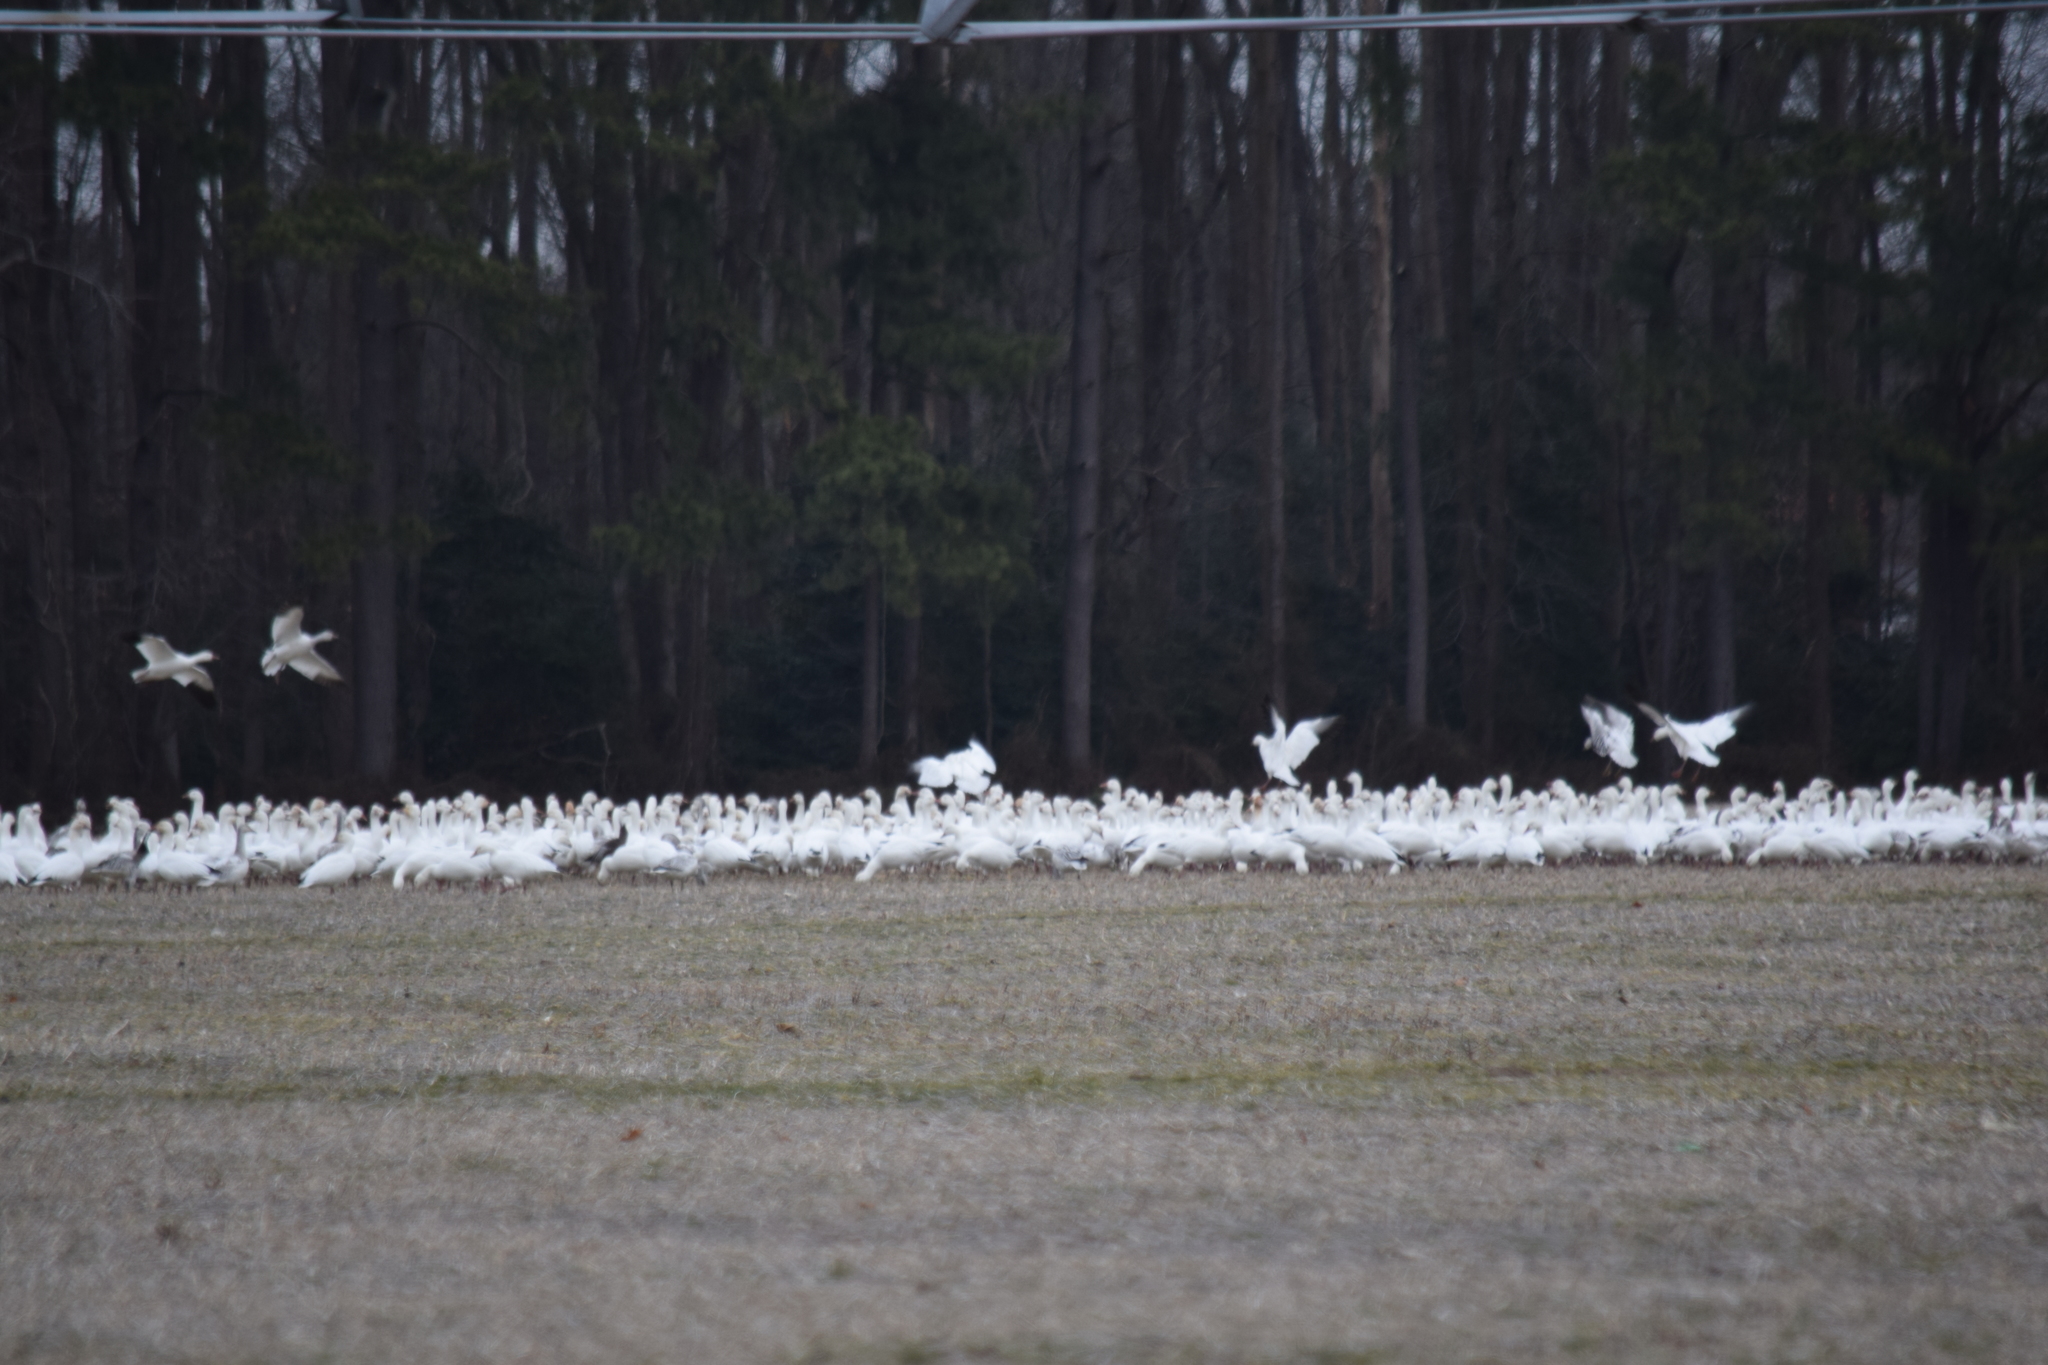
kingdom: Animalia
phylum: Chordata
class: Aves
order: Anseriformes
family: Anatidae
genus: Anser
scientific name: Anser caerulescens
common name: Snow goose
